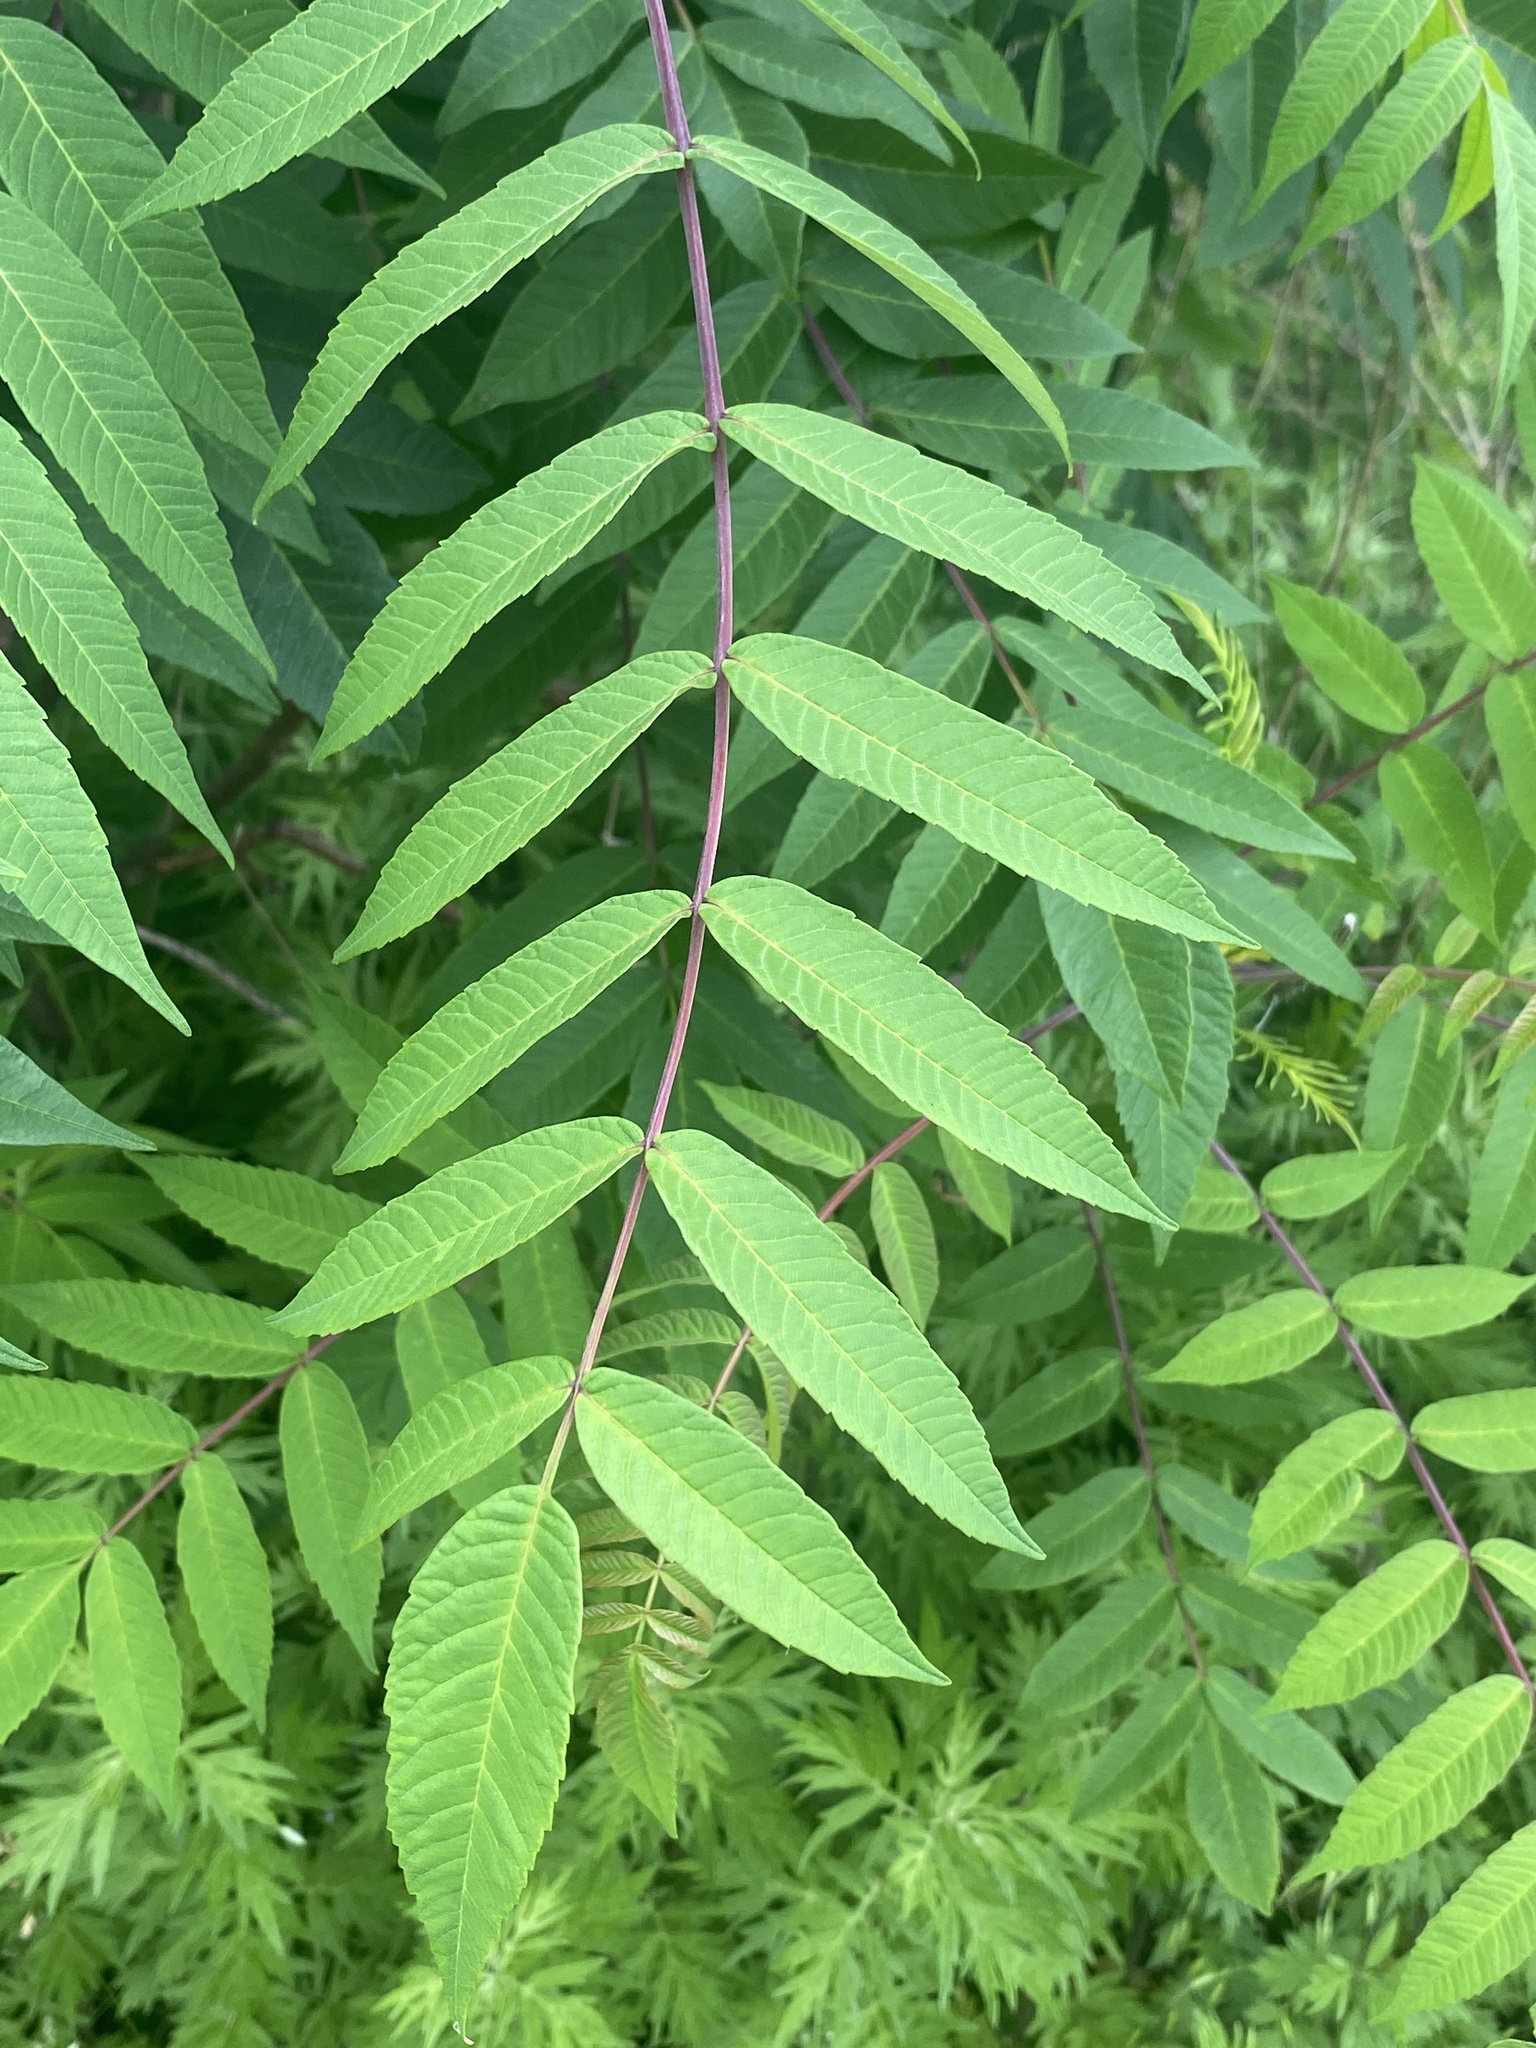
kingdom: Plantae
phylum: Tracheophyta
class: Magnoliopsida
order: Sapindales
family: Anacardiaceae
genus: Rhus
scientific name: Rhus glabra
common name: Scarlet sumac
